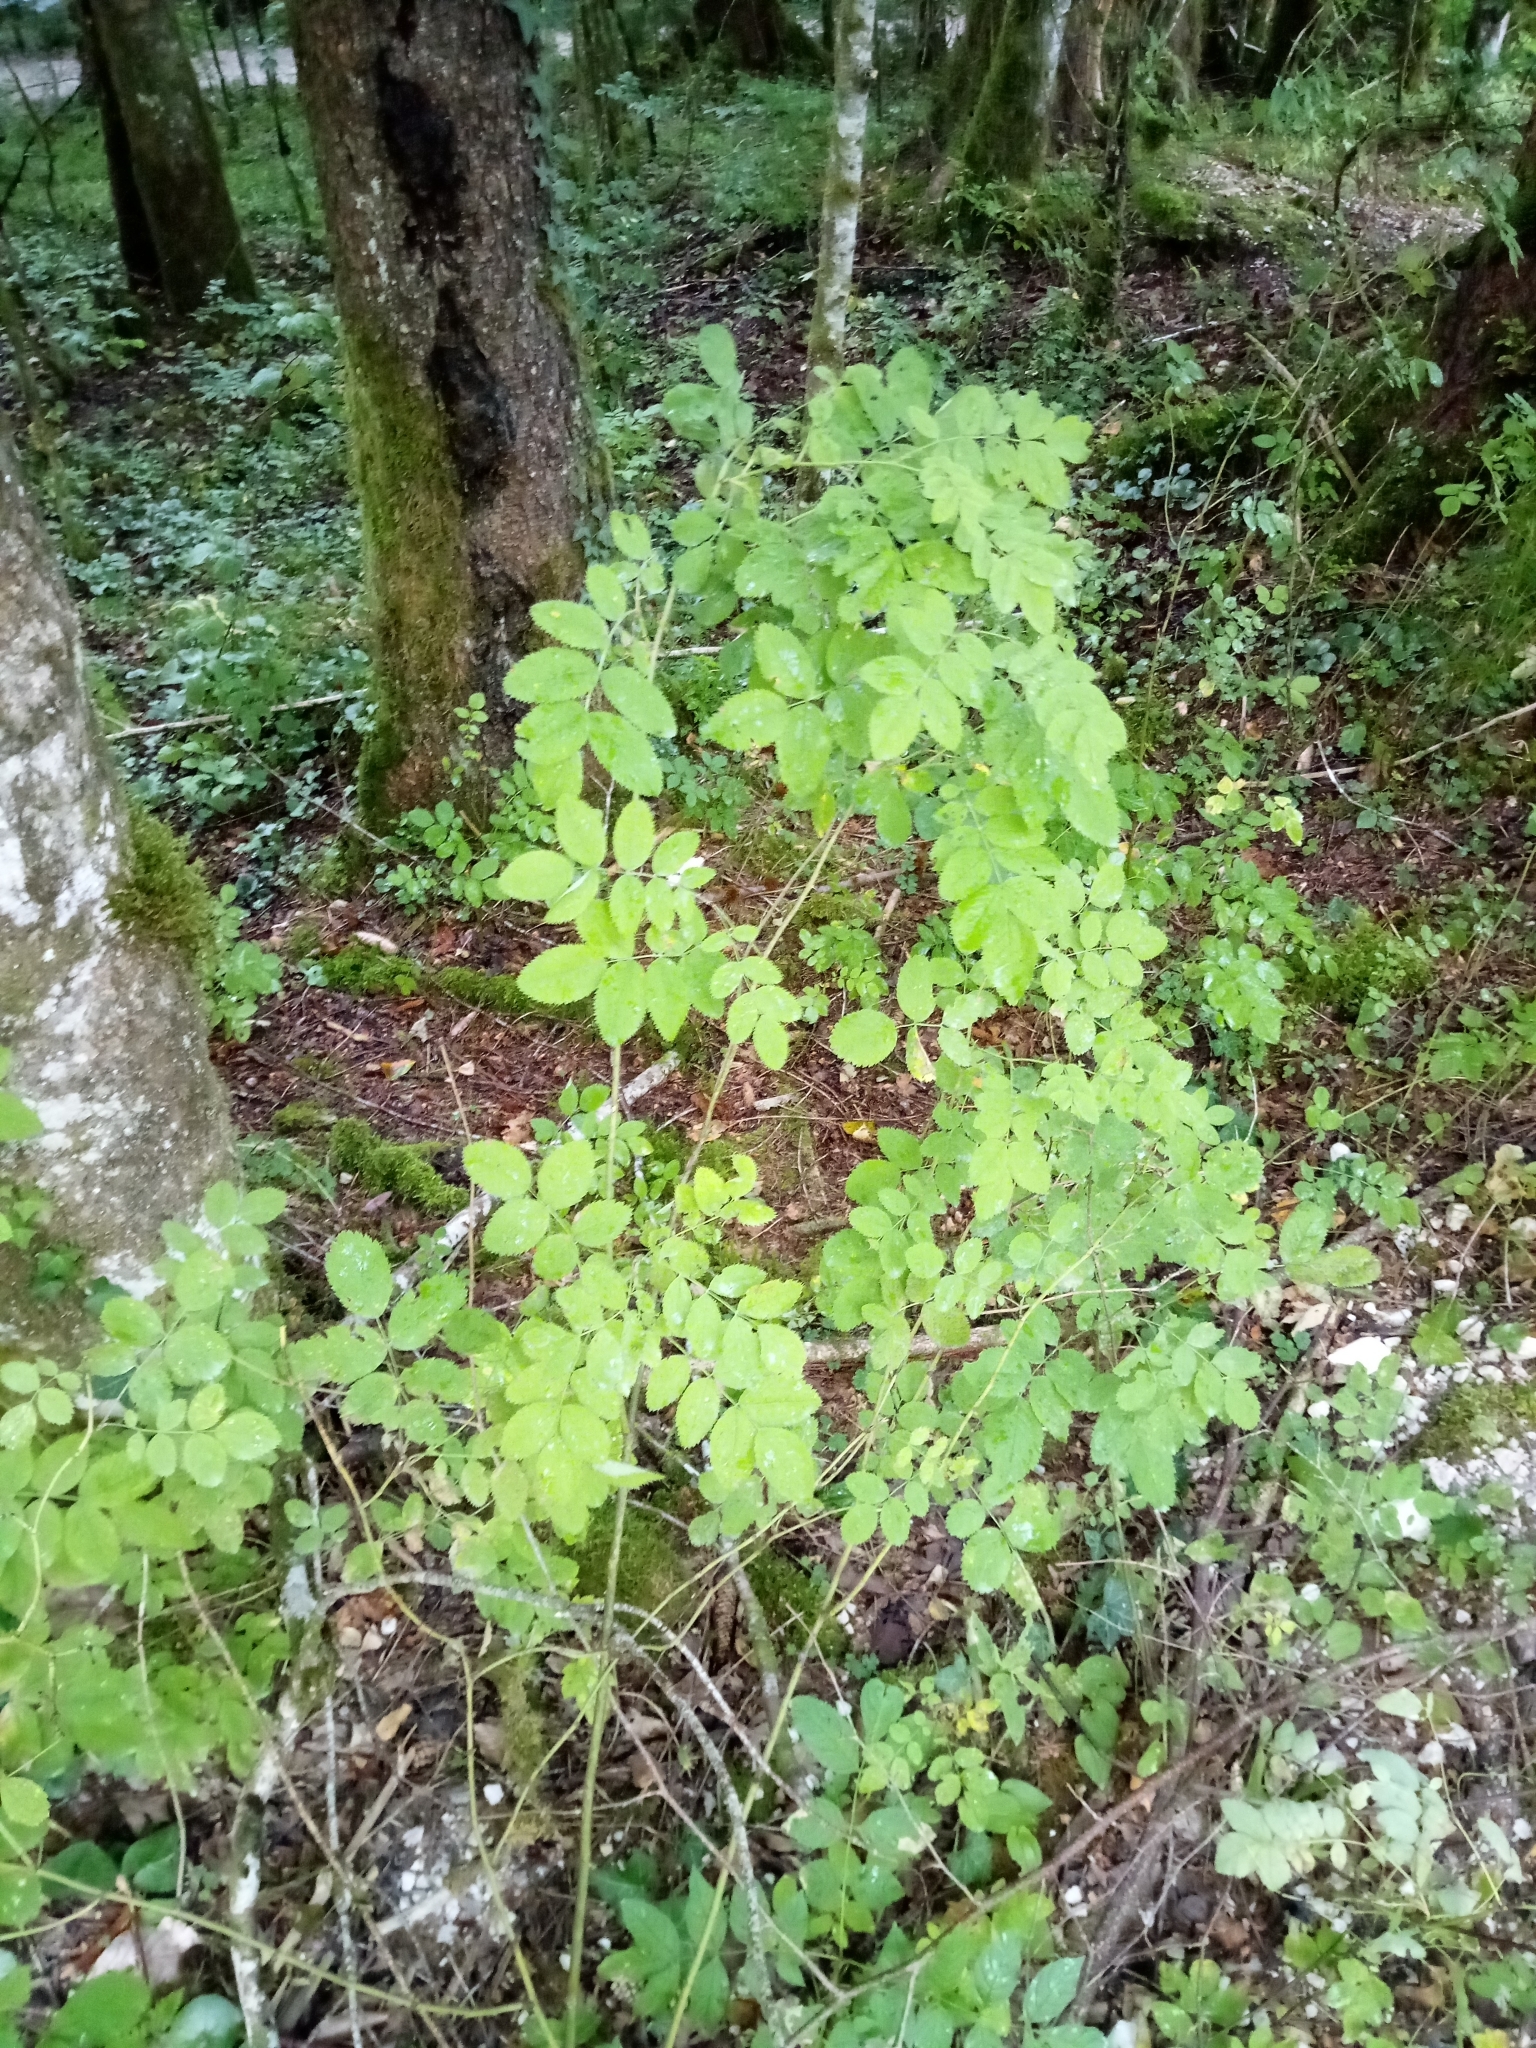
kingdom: Plantae
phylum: Tracheophyta
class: Magnoliopsida
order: Rosales
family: Rosaceae
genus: Rosa
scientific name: Rosa pendulina
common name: Alpine rose
